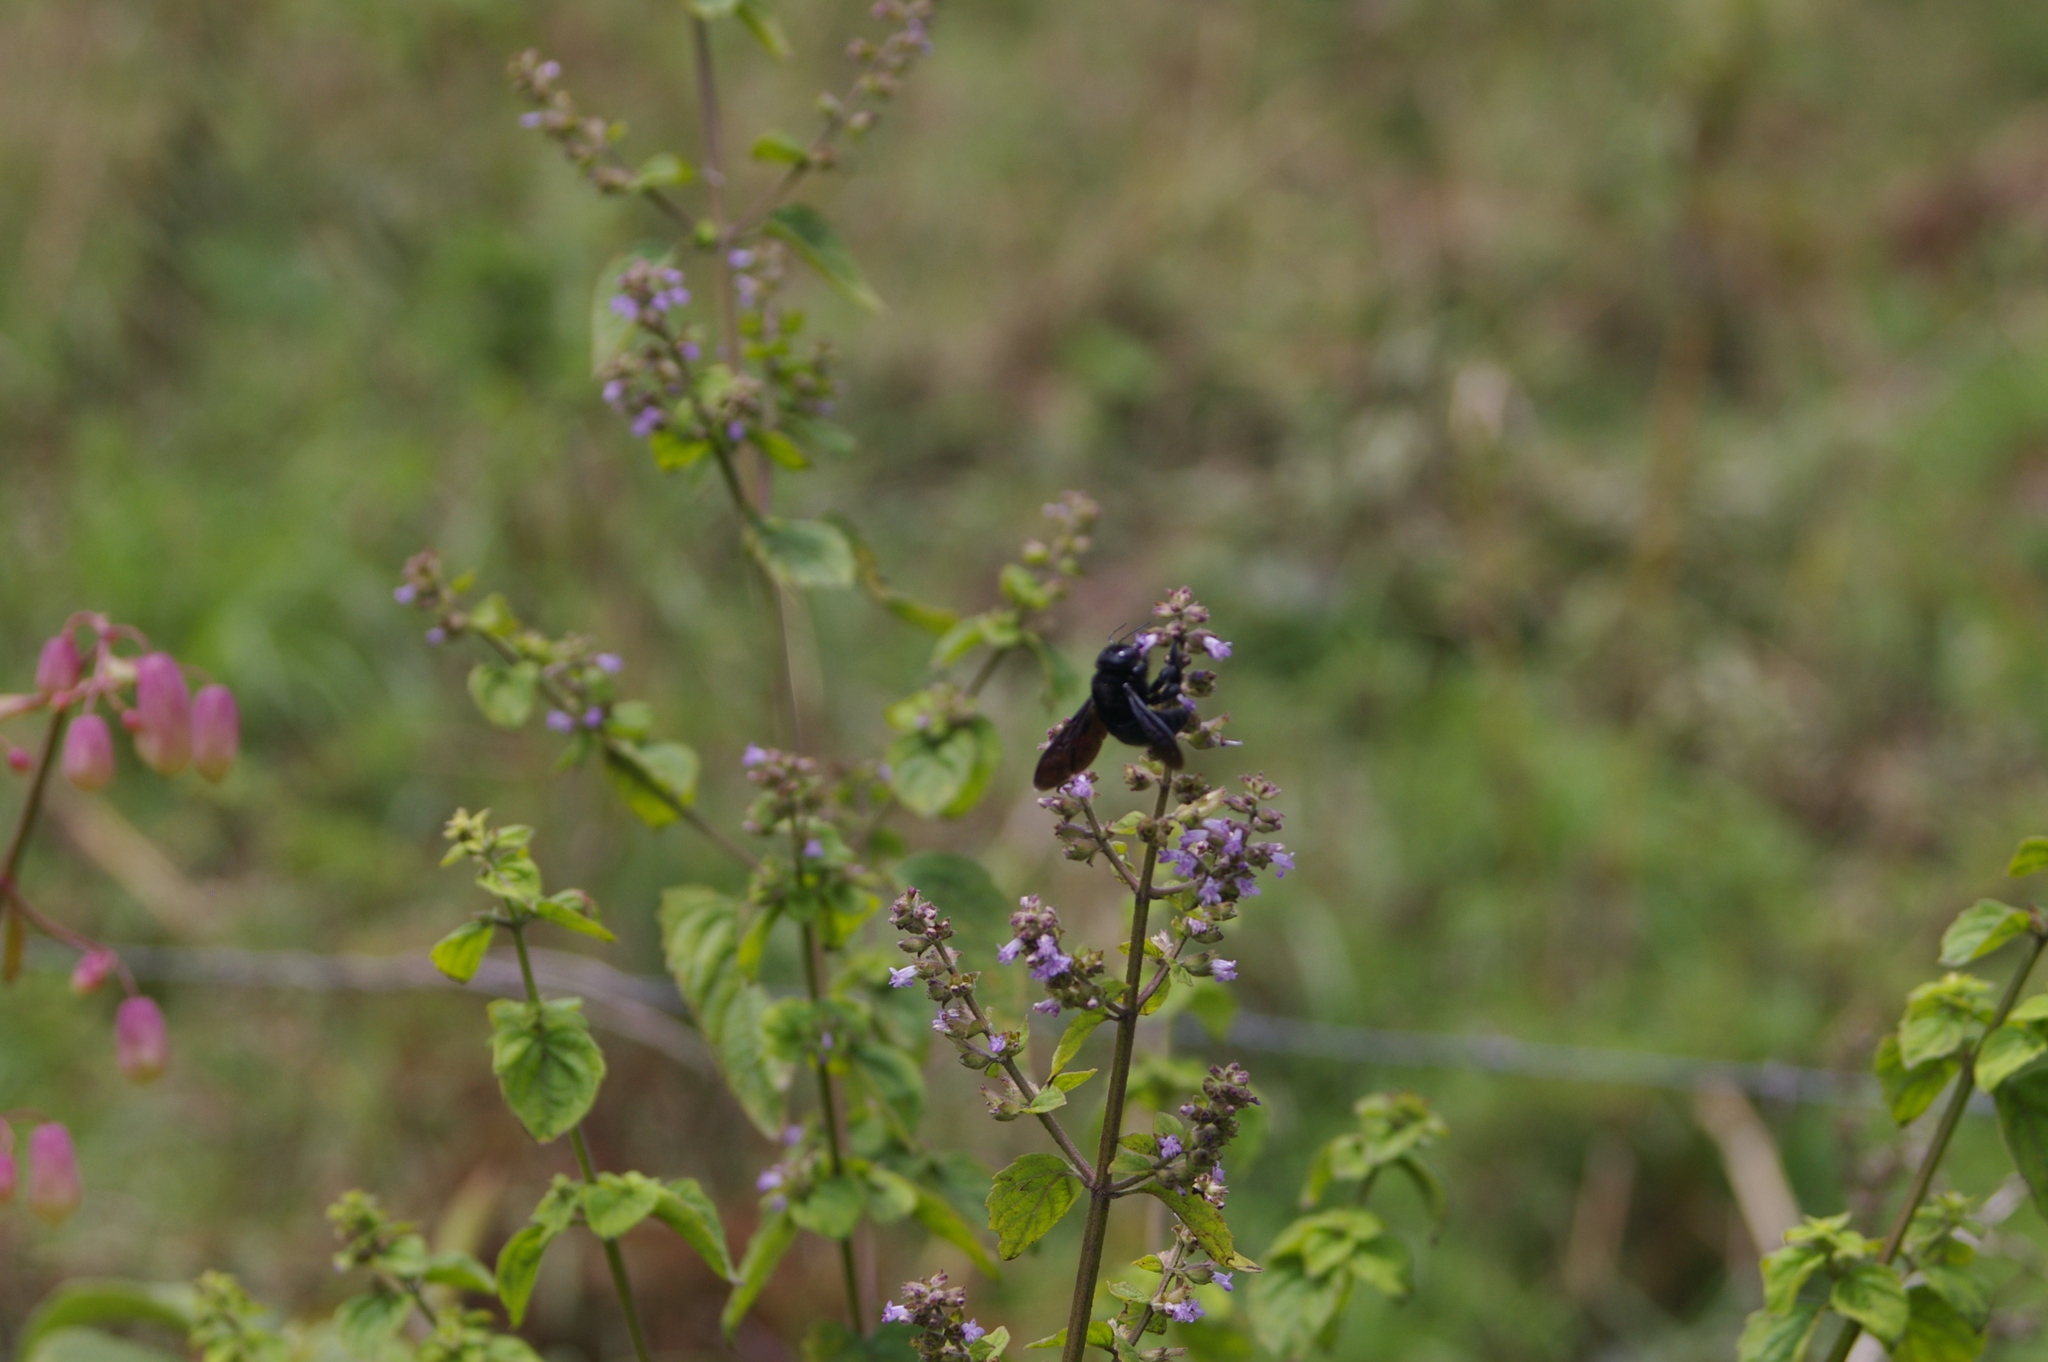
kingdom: Animalia
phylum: Arthropoda
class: Insecta
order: Hymenoptera
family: Apidae
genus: Xylocopa
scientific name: Xylocopa darwini
